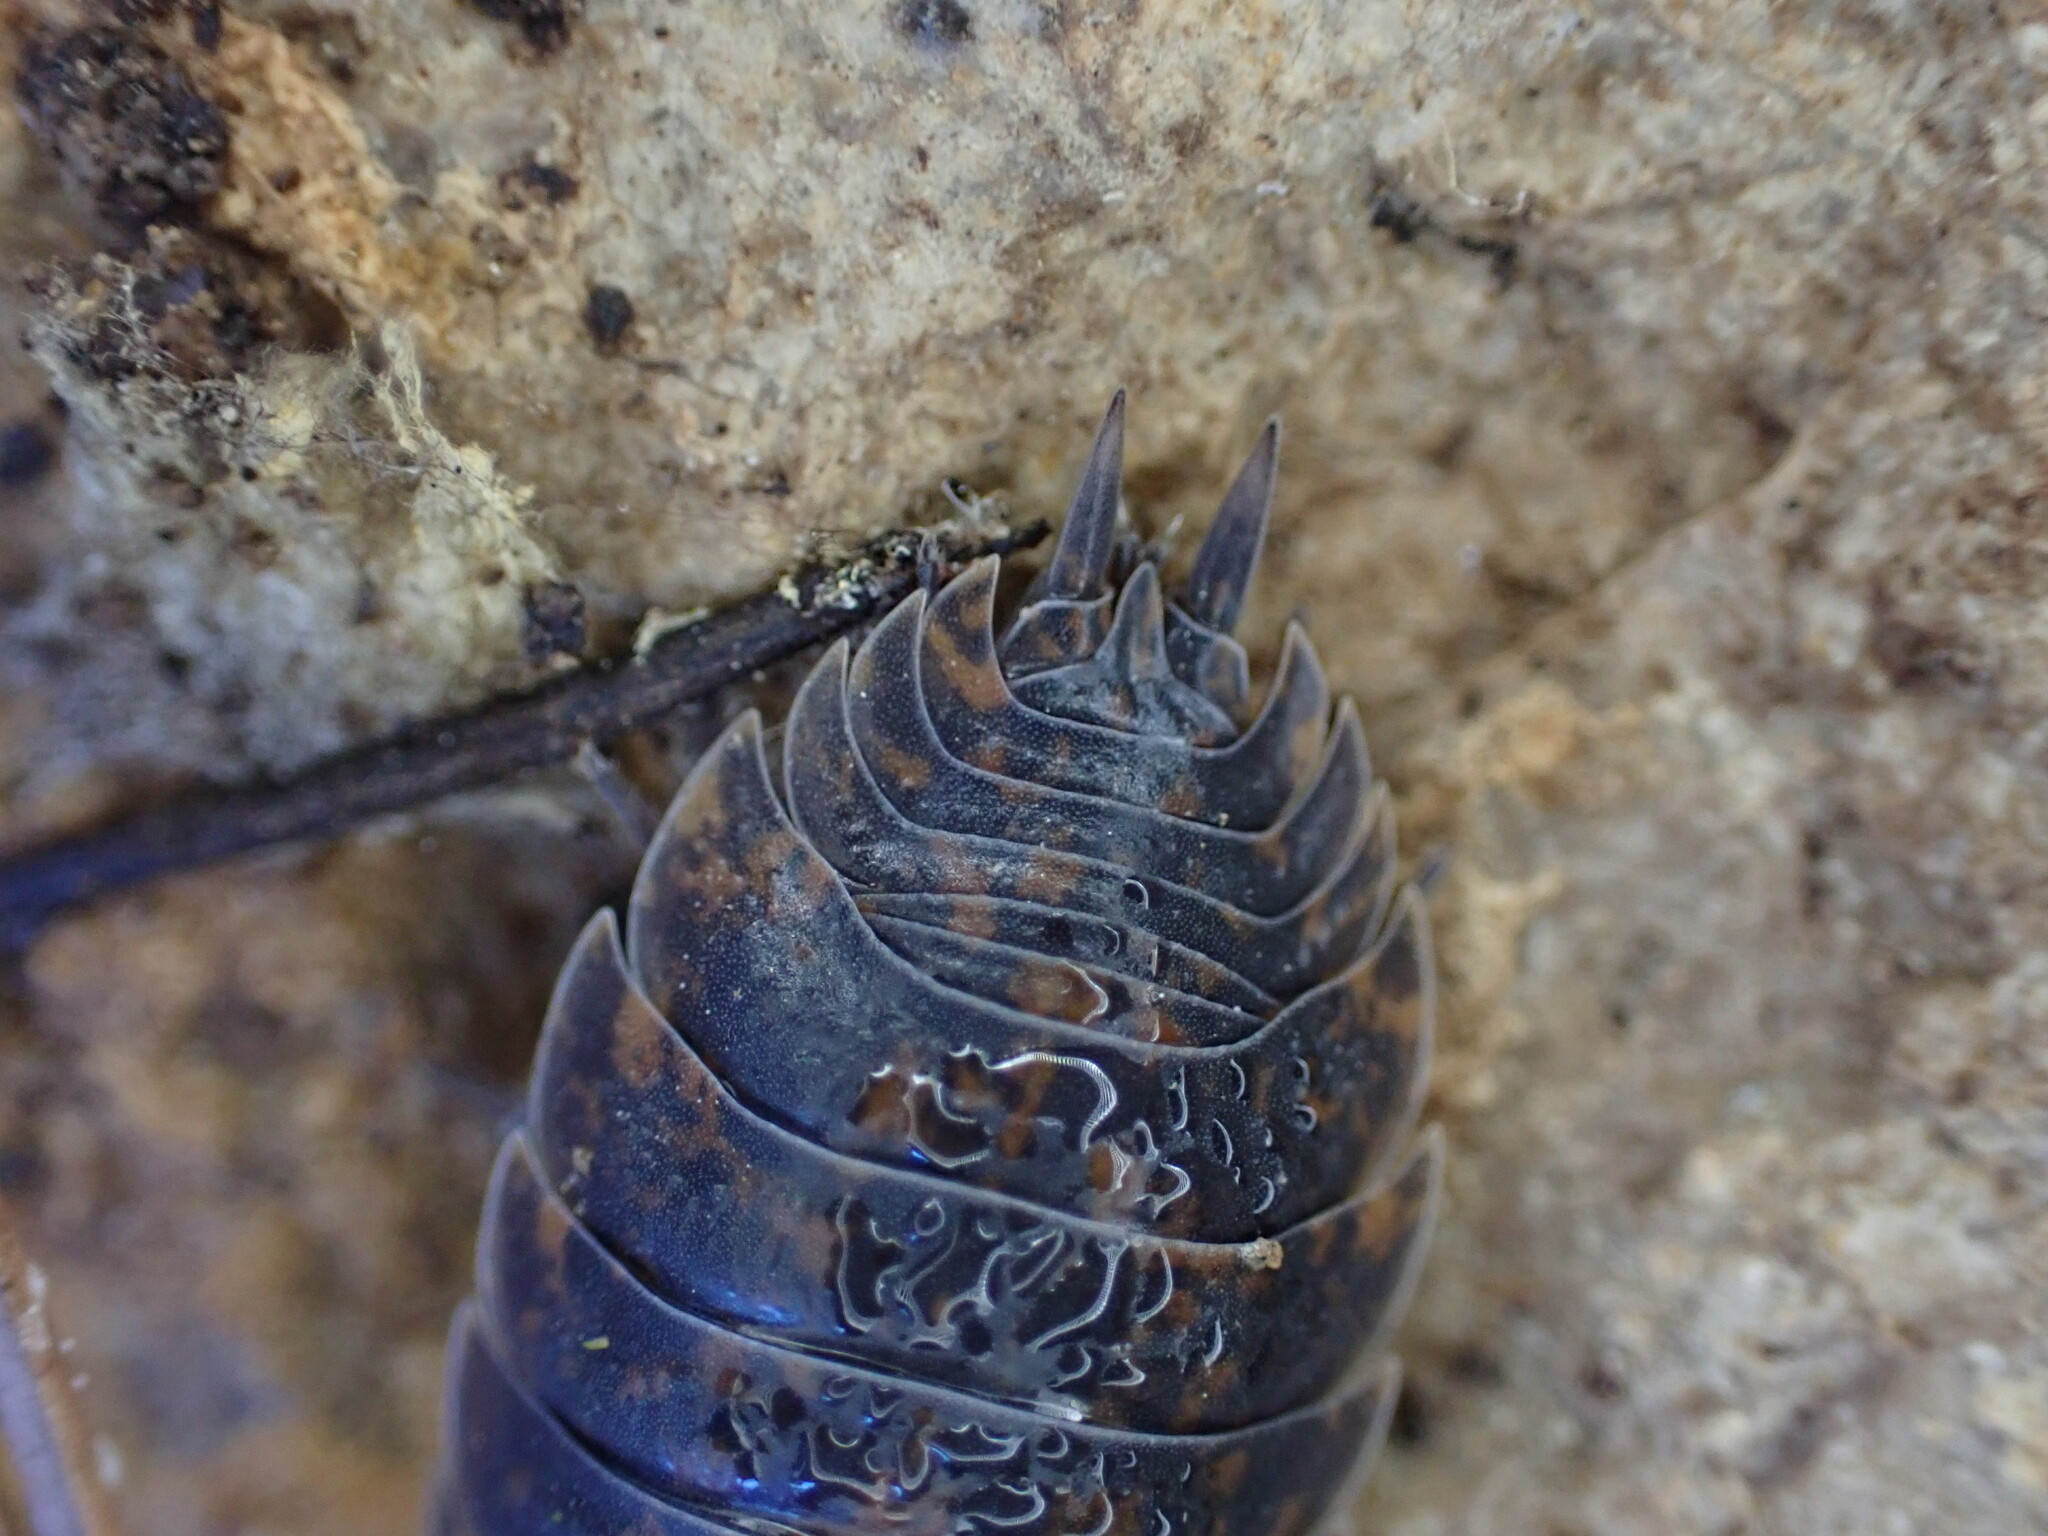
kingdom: Animalia
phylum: Arthropoda
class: Malacostraca
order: Isopoda
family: Porcellionidae
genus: Porcellio
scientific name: Porcellio orarum
